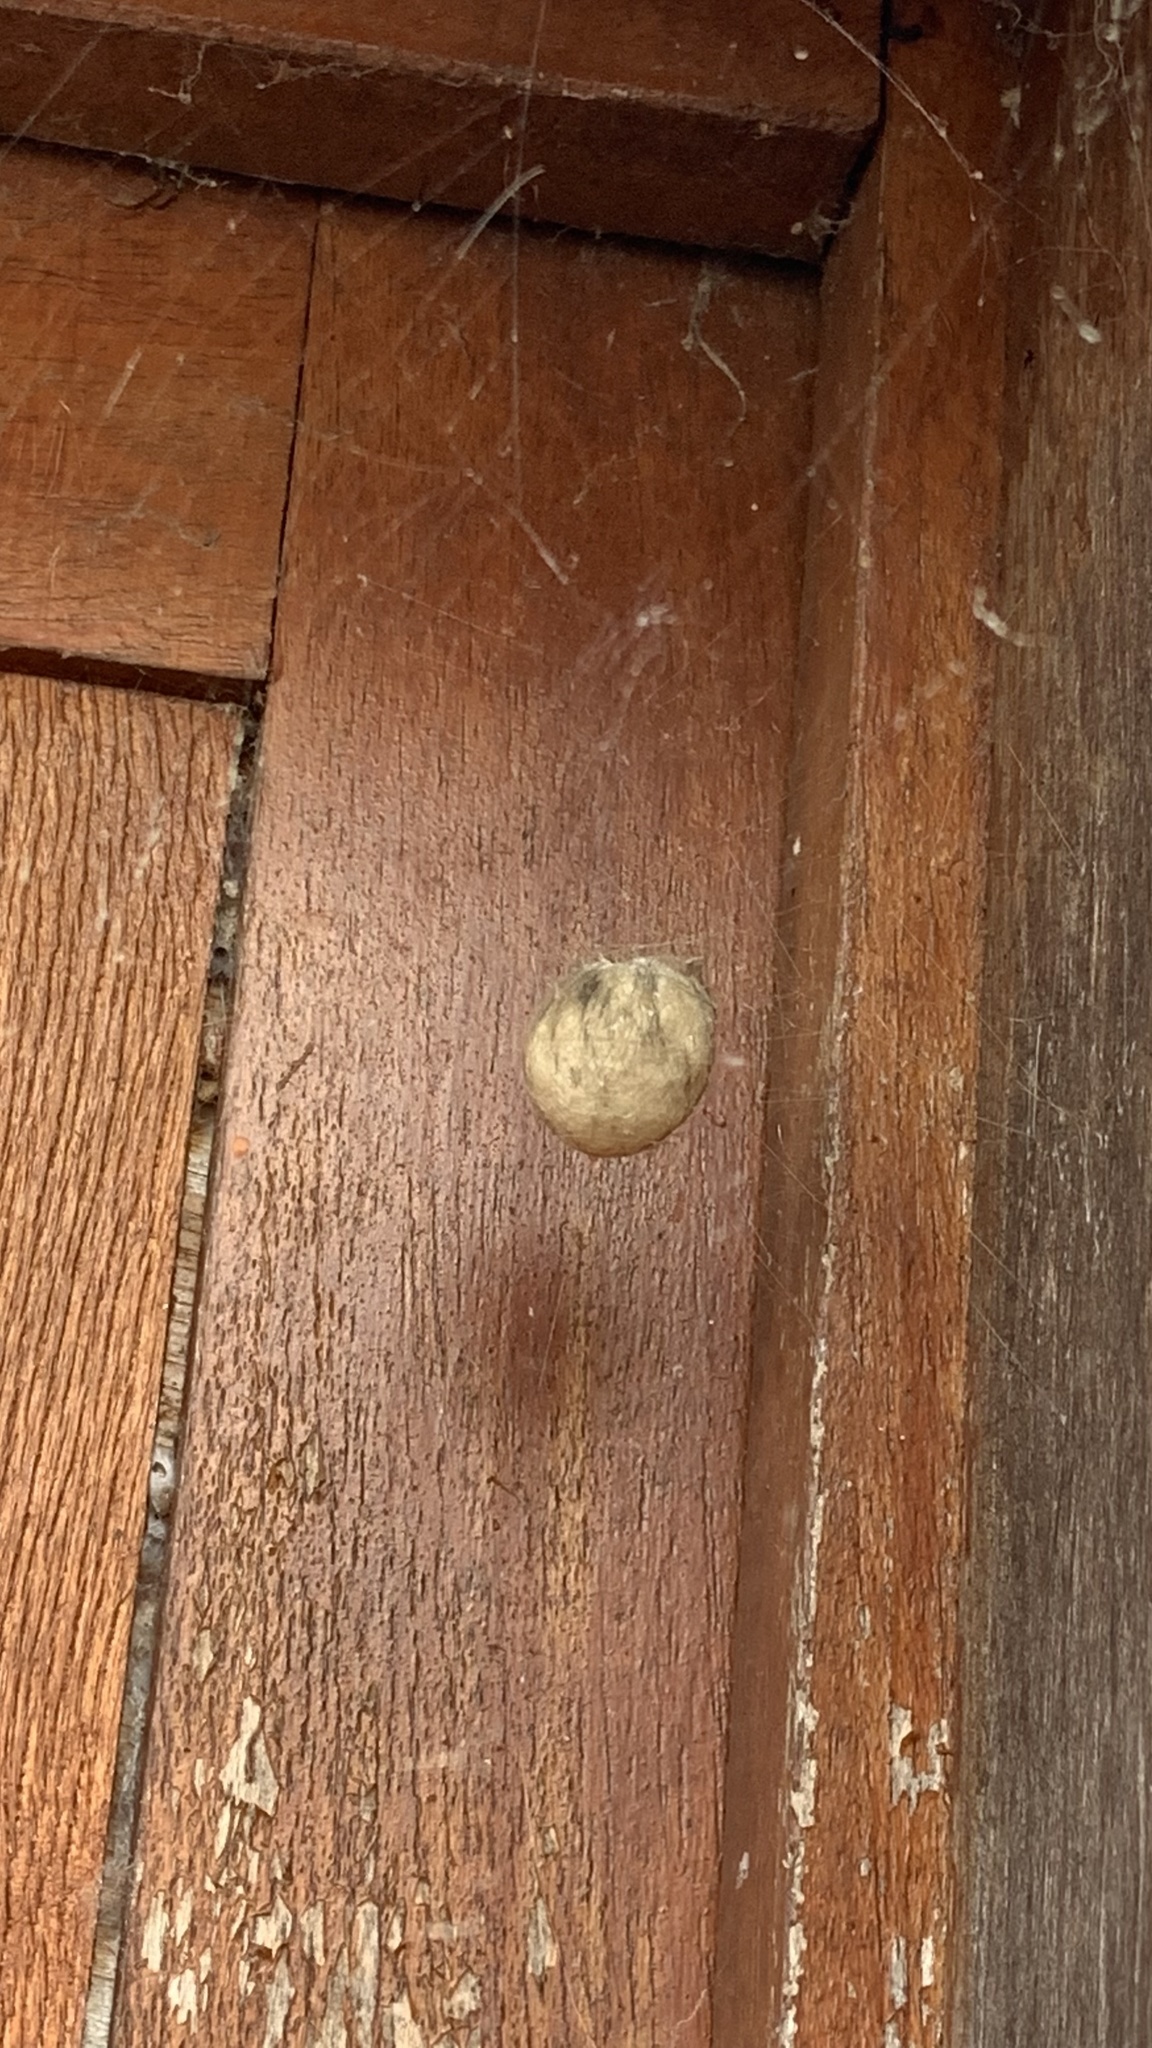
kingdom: Animalia
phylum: Arthropoda
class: Arachnida
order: Araneae
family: Araneidae
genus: Argiope
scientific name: Argiope bruennichi
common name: Wasp spider
